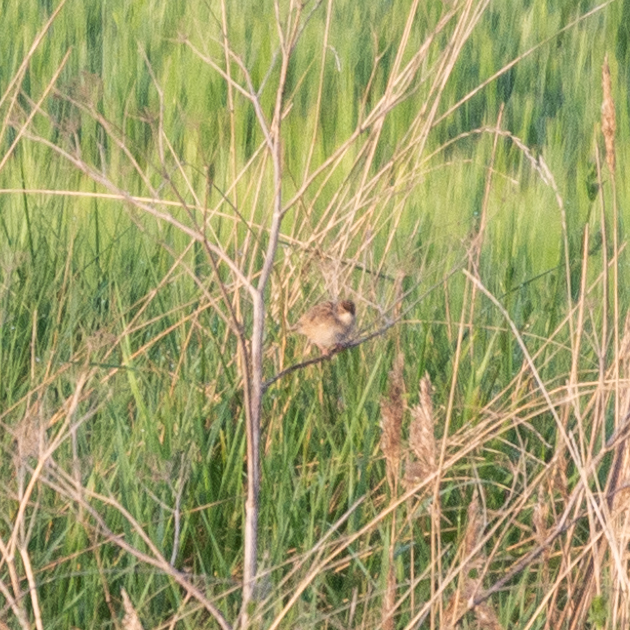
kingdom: Animalia
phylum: Chordata
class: Aves
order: Passeriformes
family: Cisticolidae
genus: Cisticola
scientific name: Cisticola juncidis
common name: Zitting cisticola
